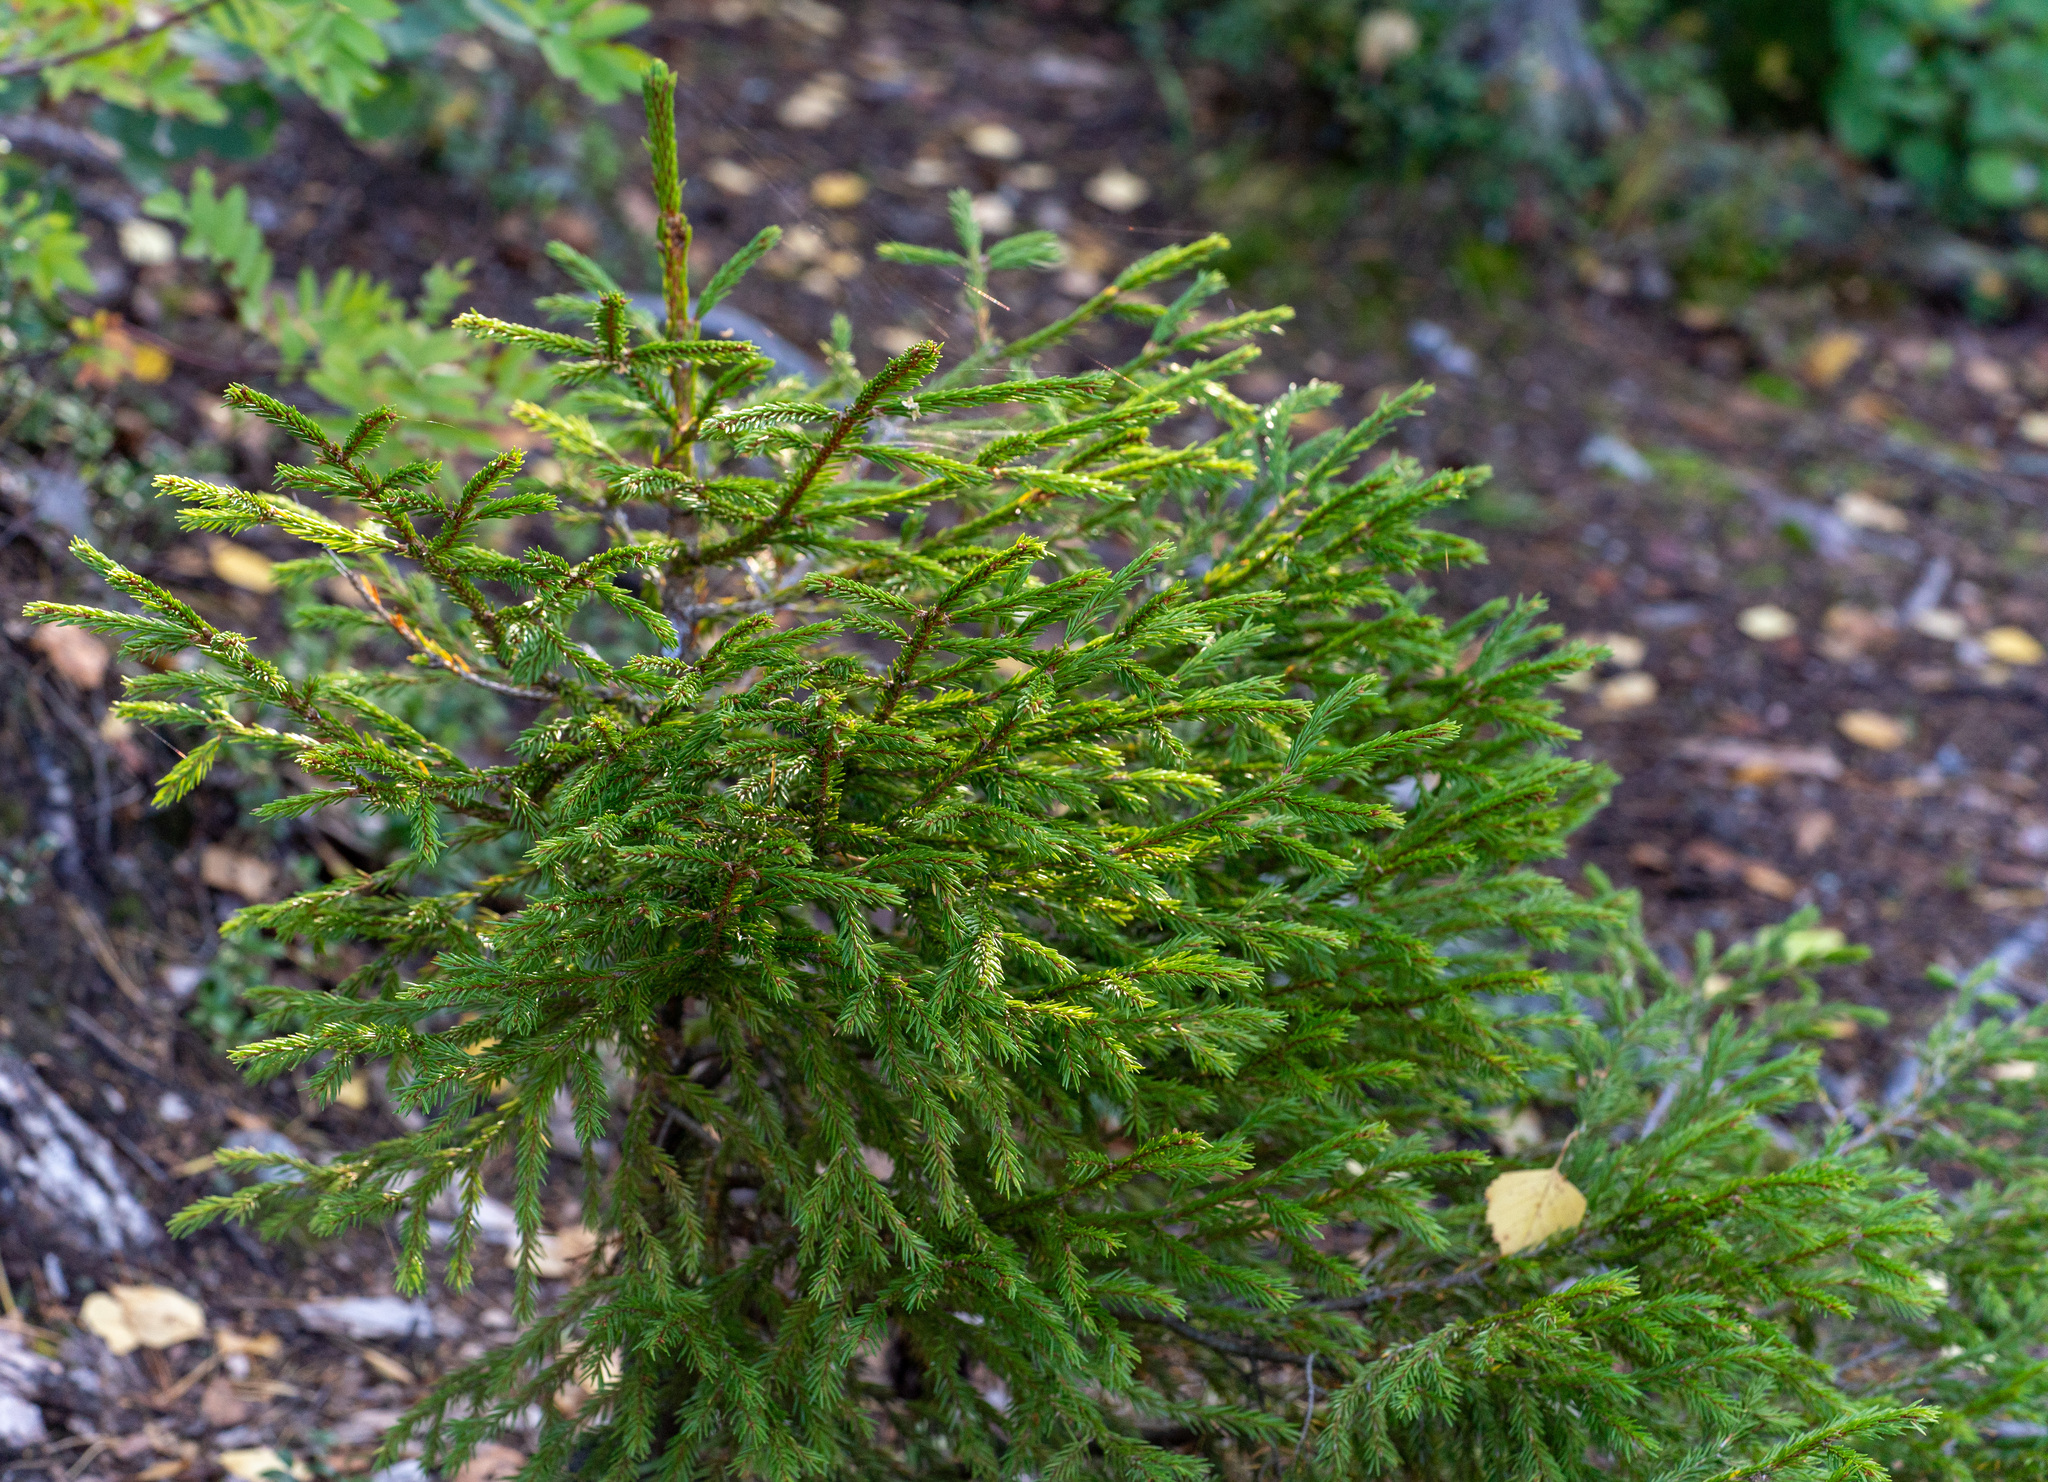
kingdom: Plantae
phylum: Tracheophyta
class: Pinopsida
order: Pinales
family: Pinaceae
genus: Picea
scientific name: Picea abies
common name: Norway spruce
